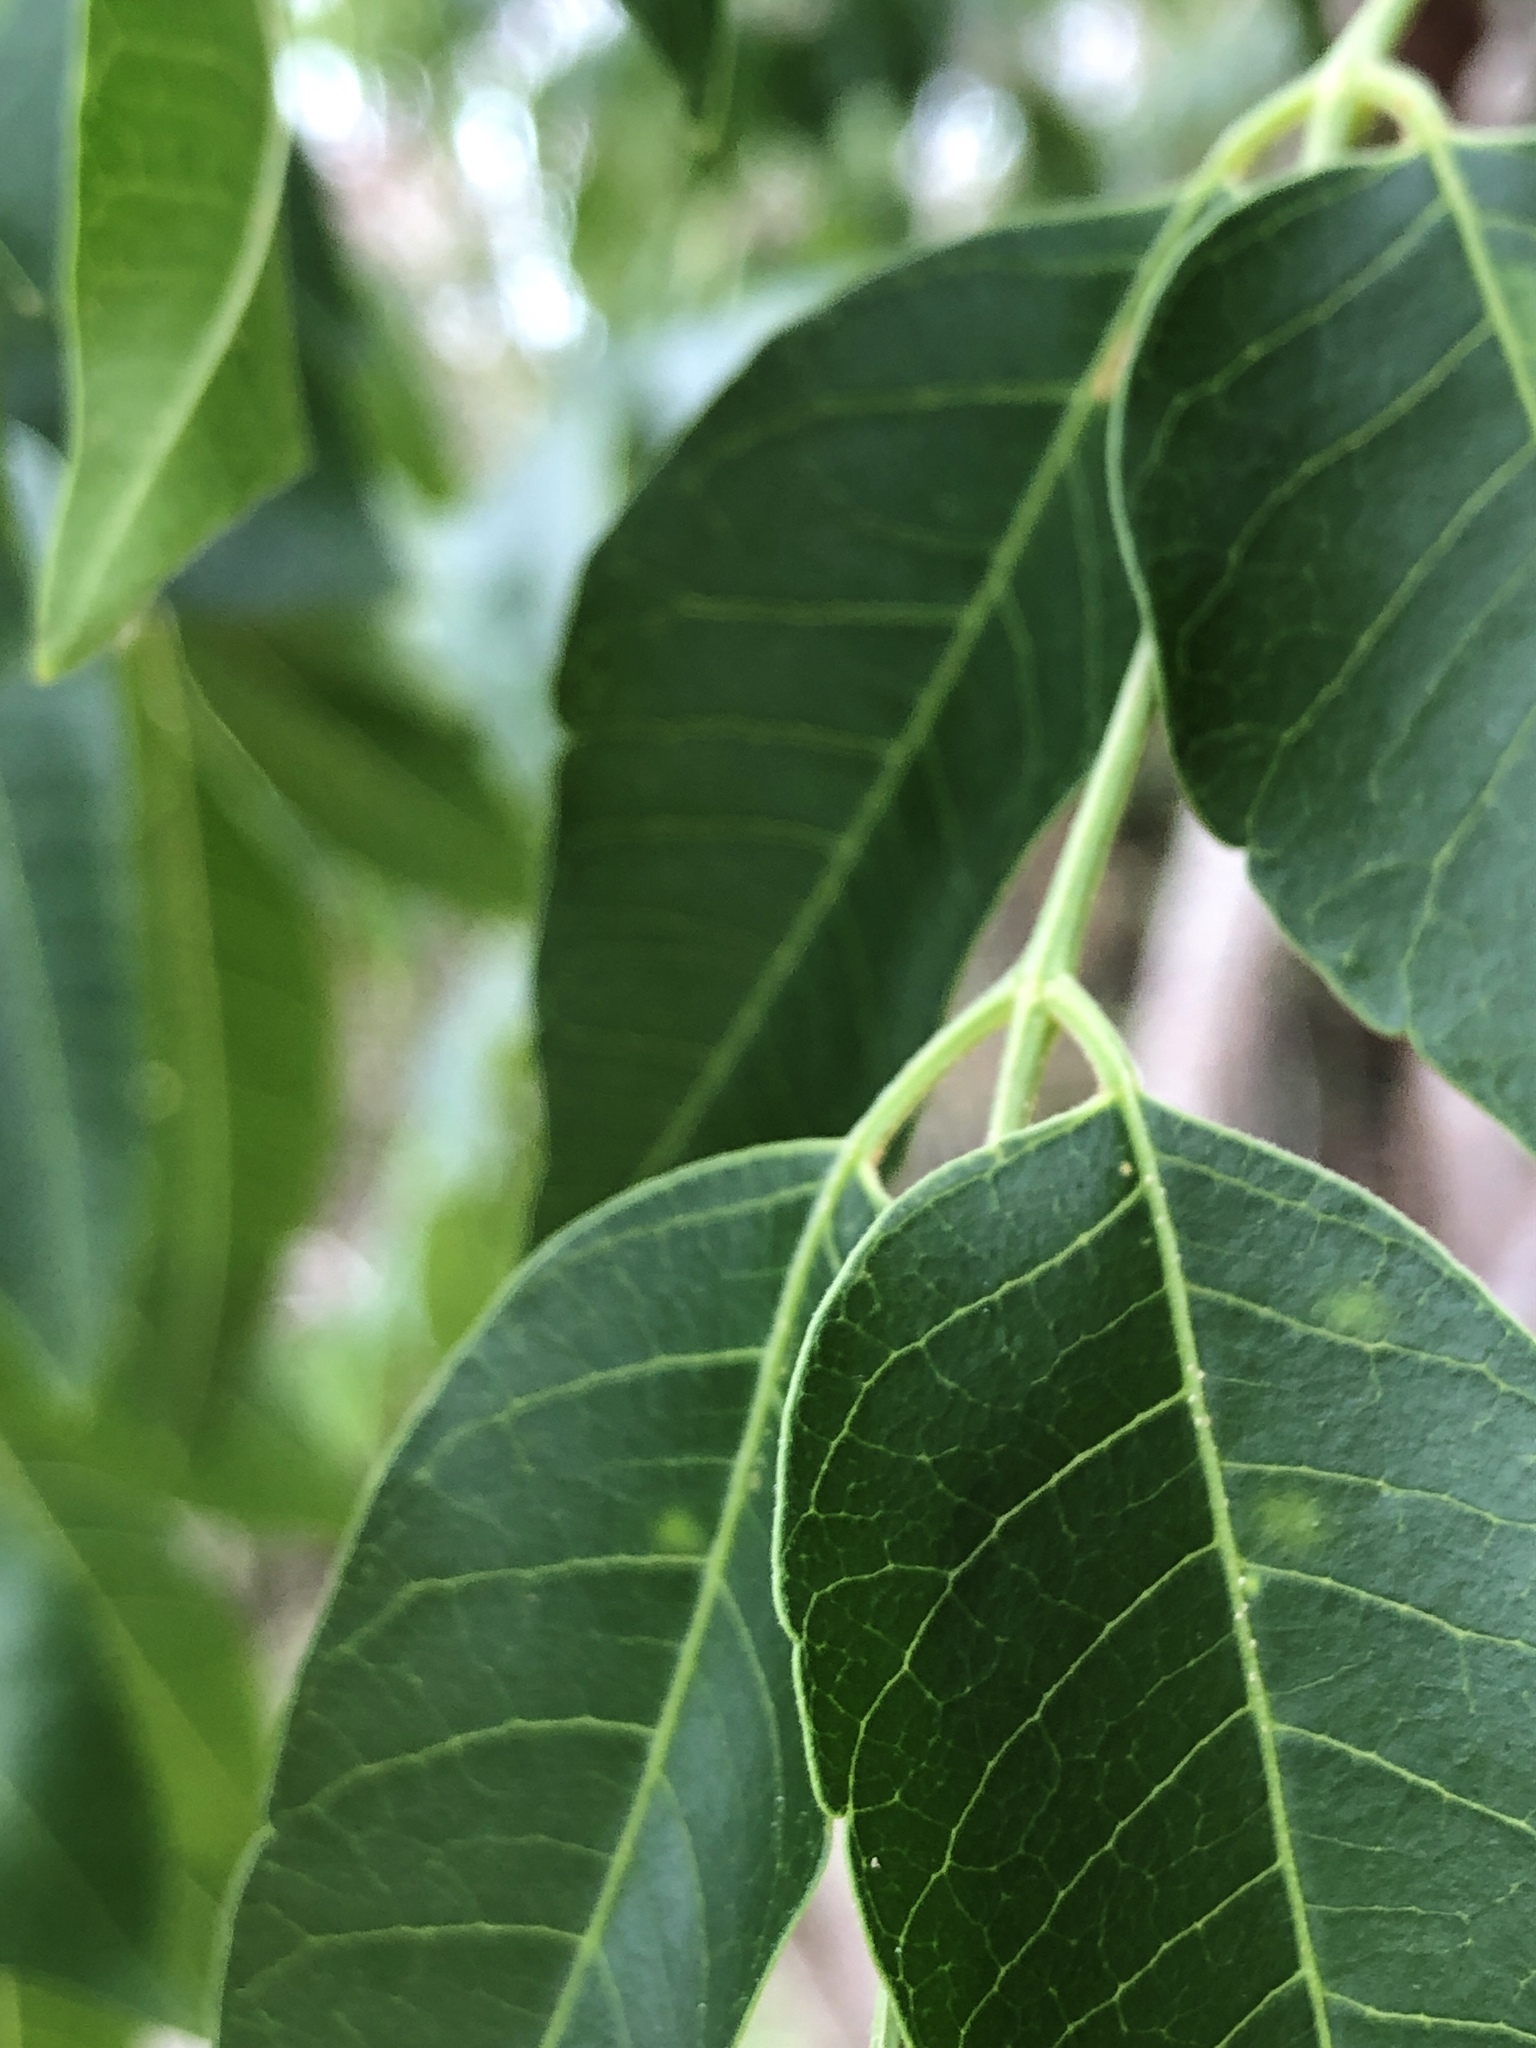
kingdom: Plantae
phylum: Tracheophyta
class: Magnoliopsida
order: Sapindales
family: Meliaceae
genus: Melia
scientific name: Melia azedarach
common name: Chinaberrytree
